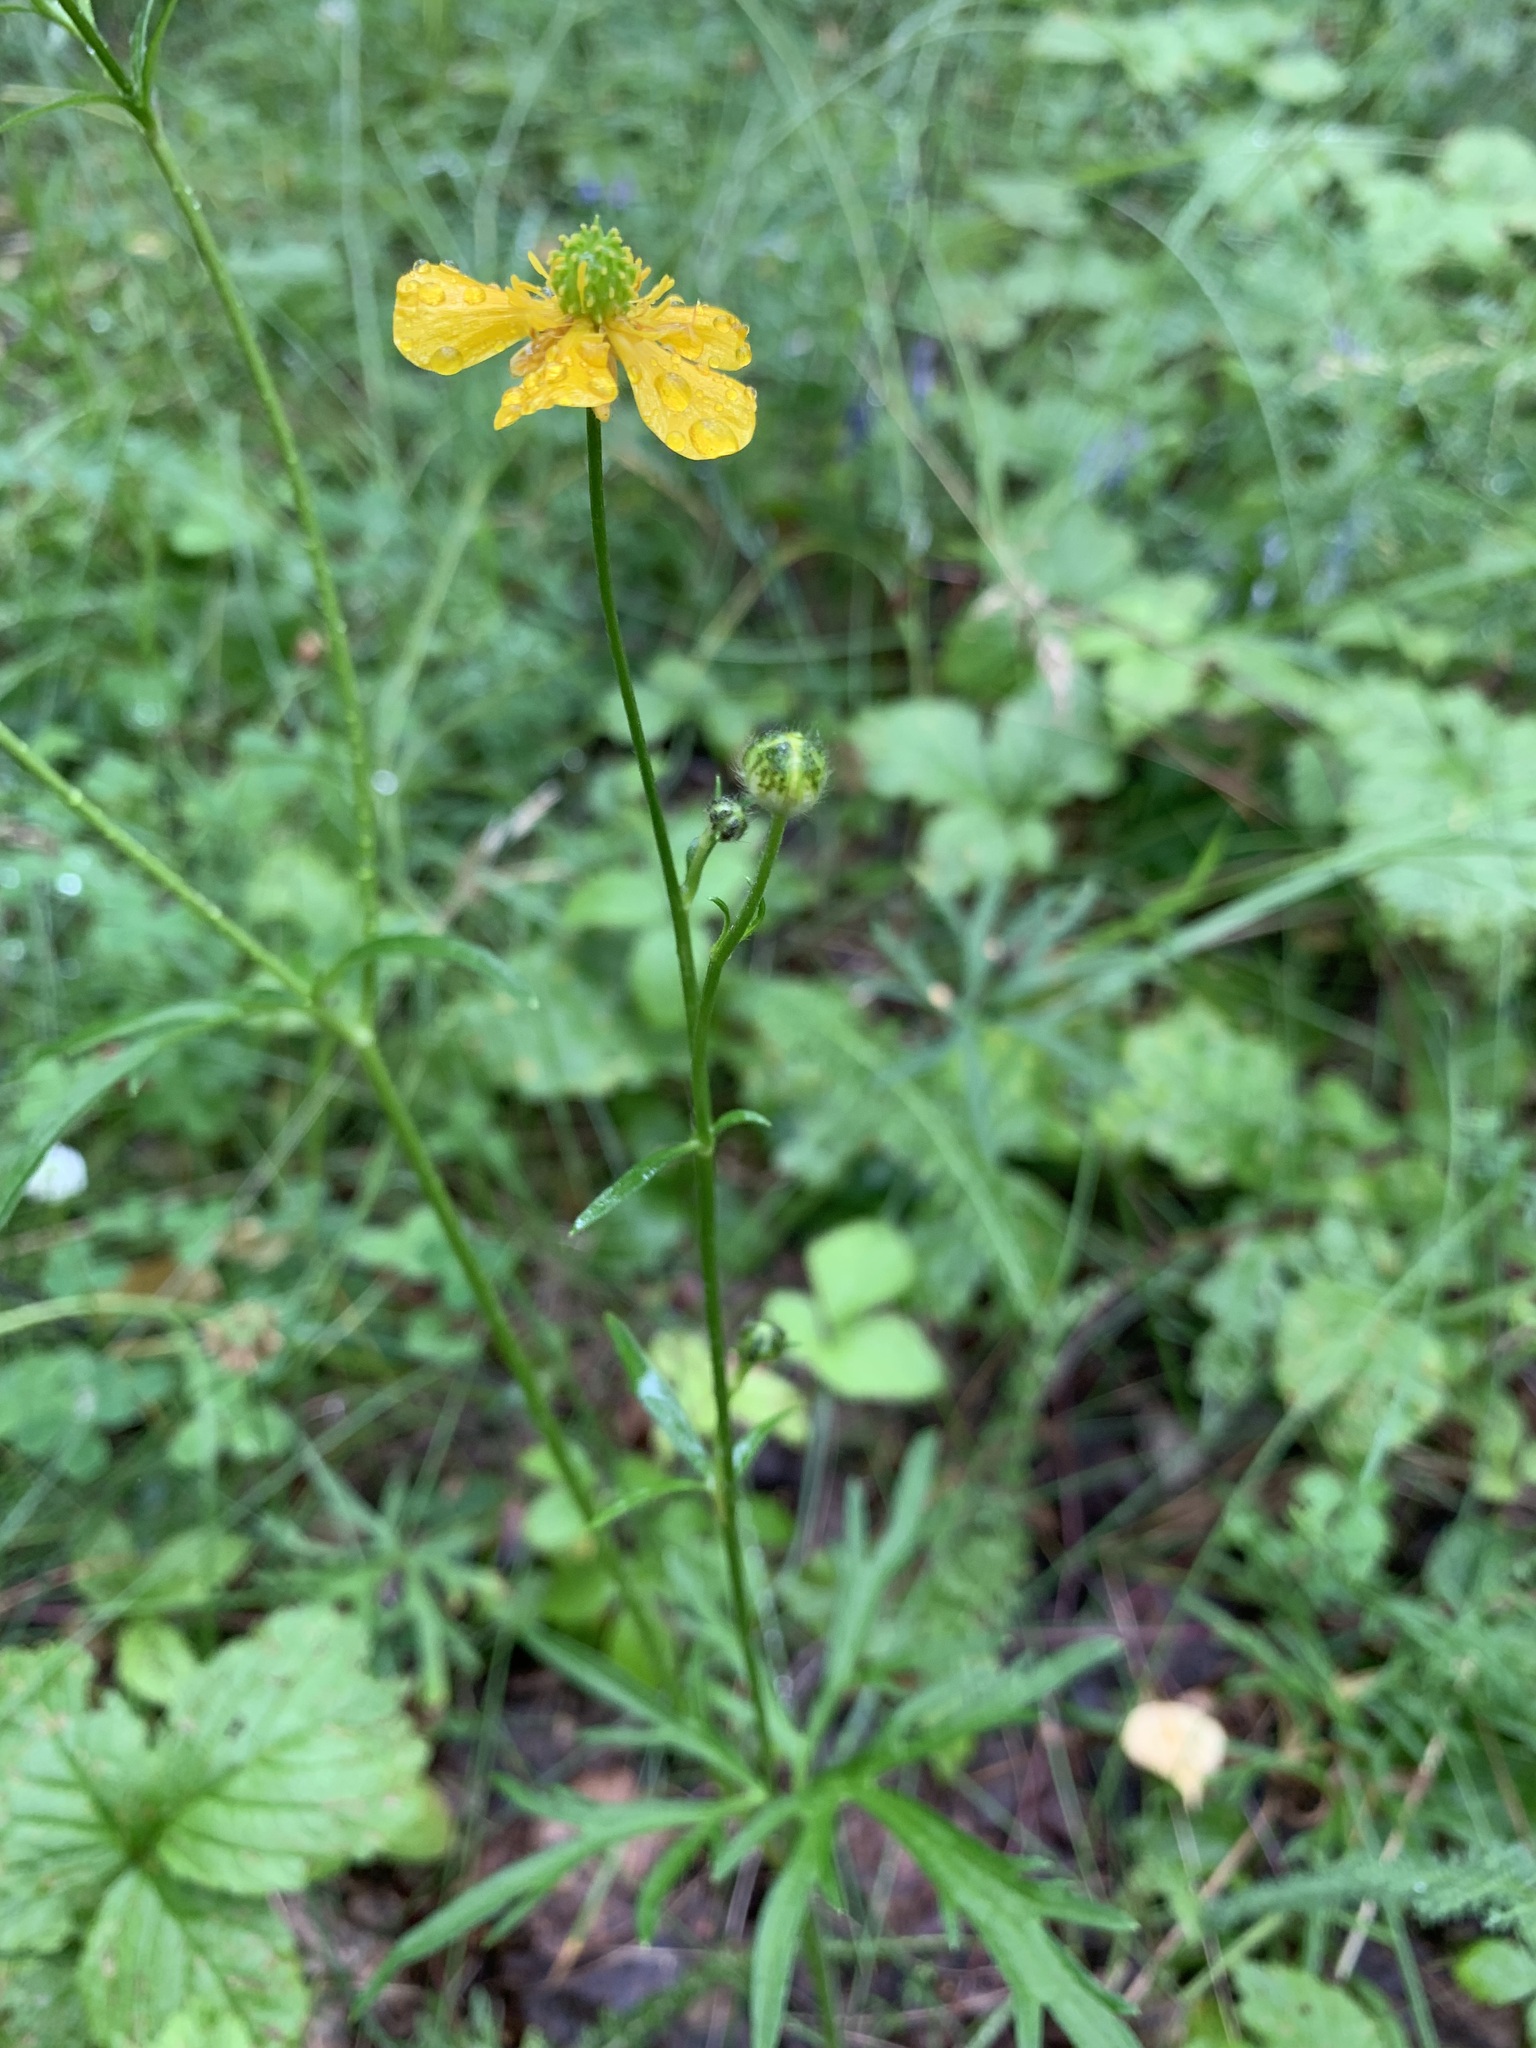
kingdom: Plantae
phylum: Tracheophyta
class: Magnoliopsida
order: Ranunculales
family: Ranunculaceae
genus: Ranunculus
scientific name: Ranunculus polyanthemos
